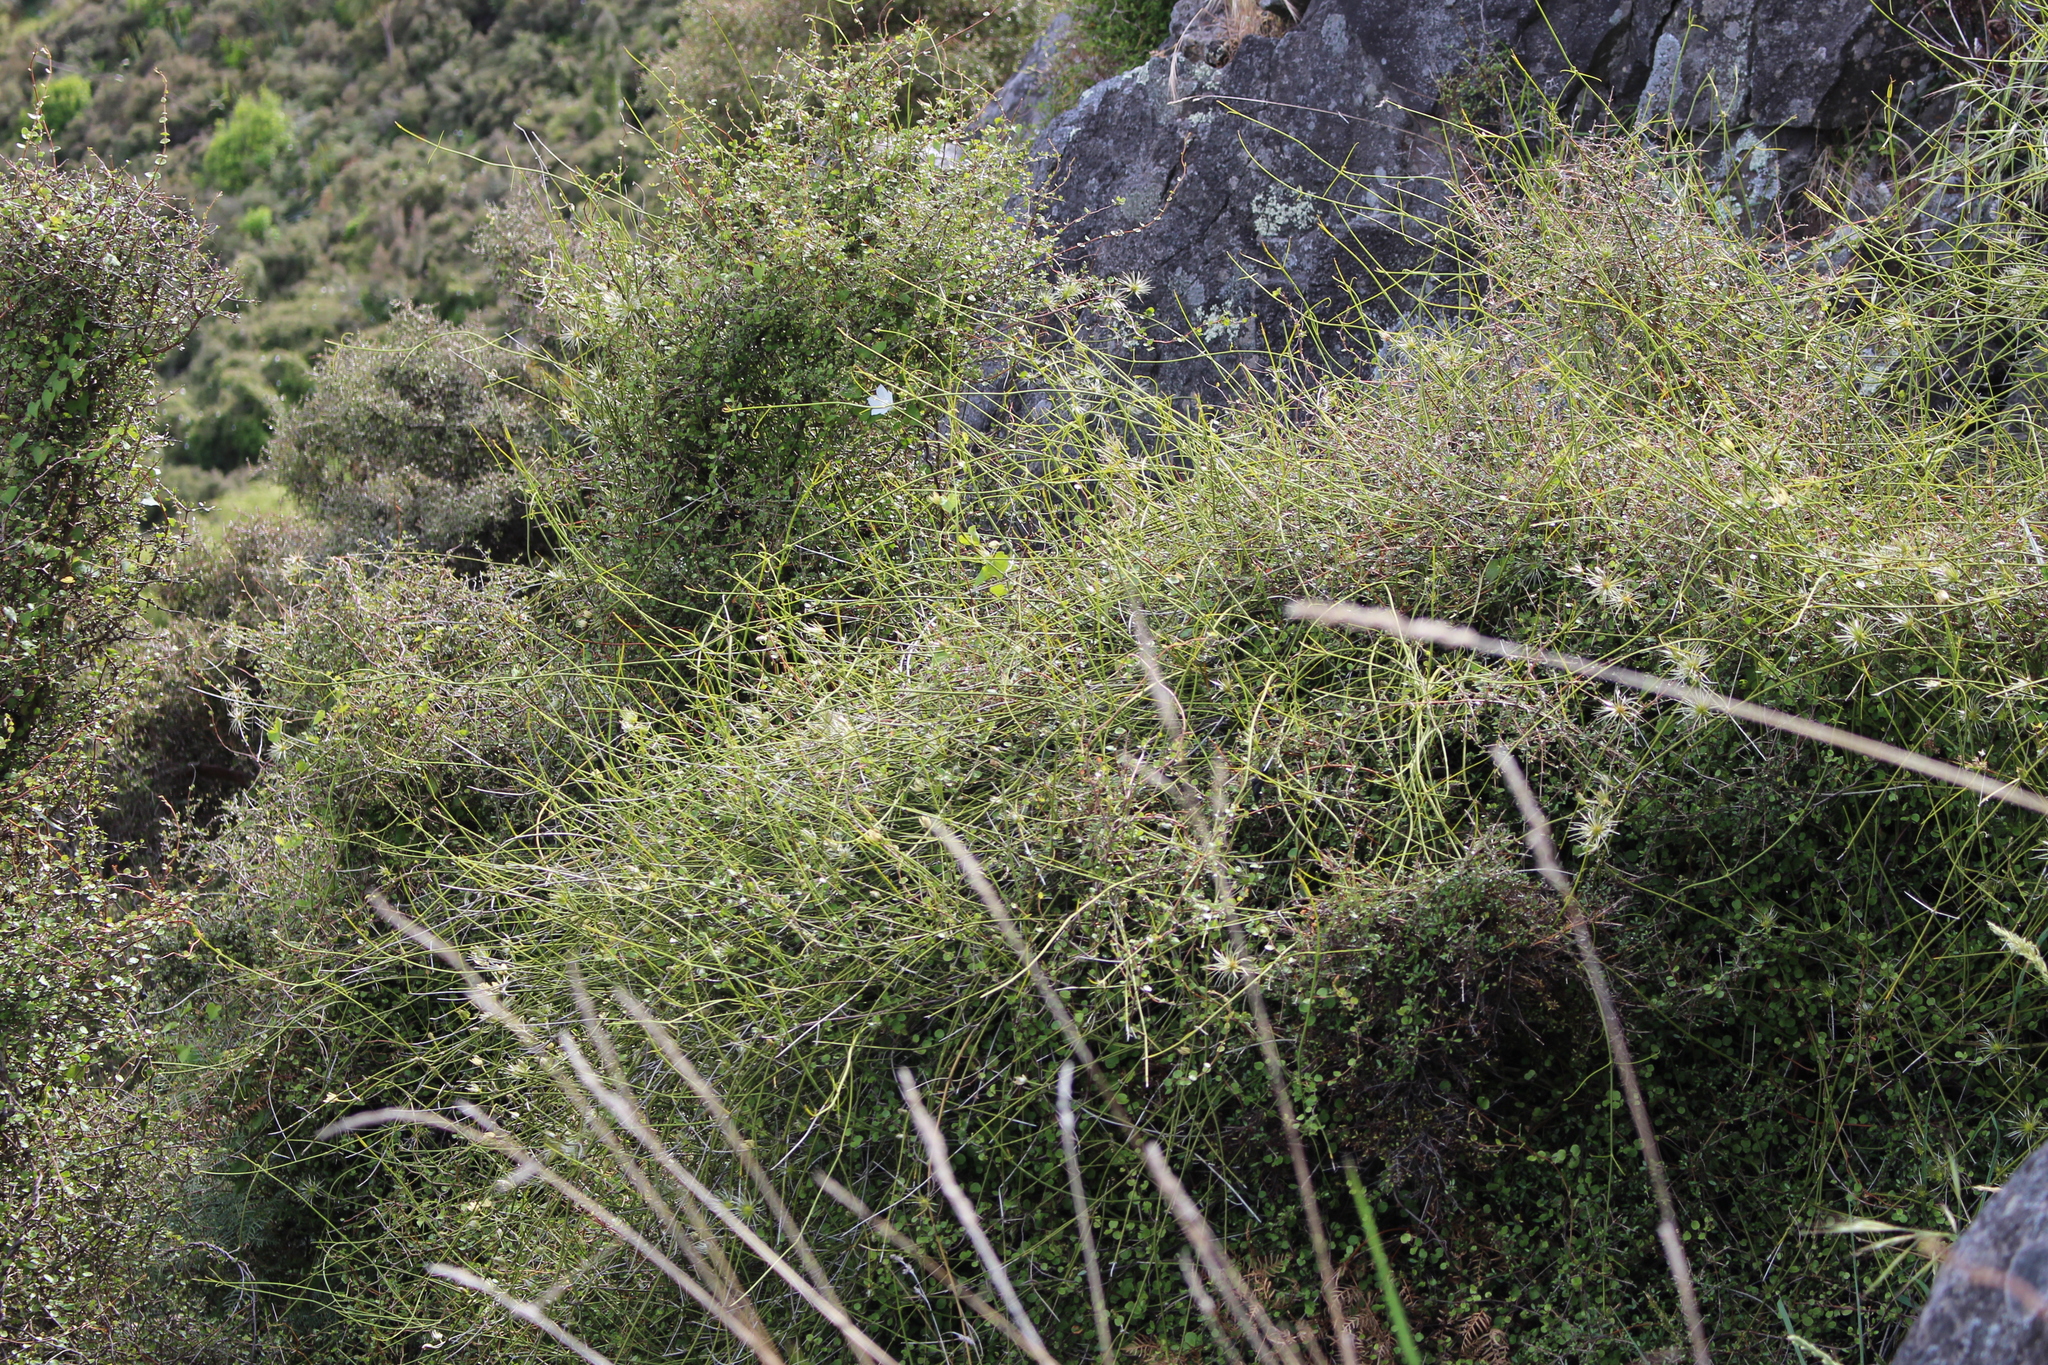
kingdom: Plantae
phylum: Tracheophyta
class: Magnoliopsida
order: Ranunculales
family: Ranunculaceae
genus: Clematis
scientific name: Clematis afoliata
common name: Rush-stem clematis
